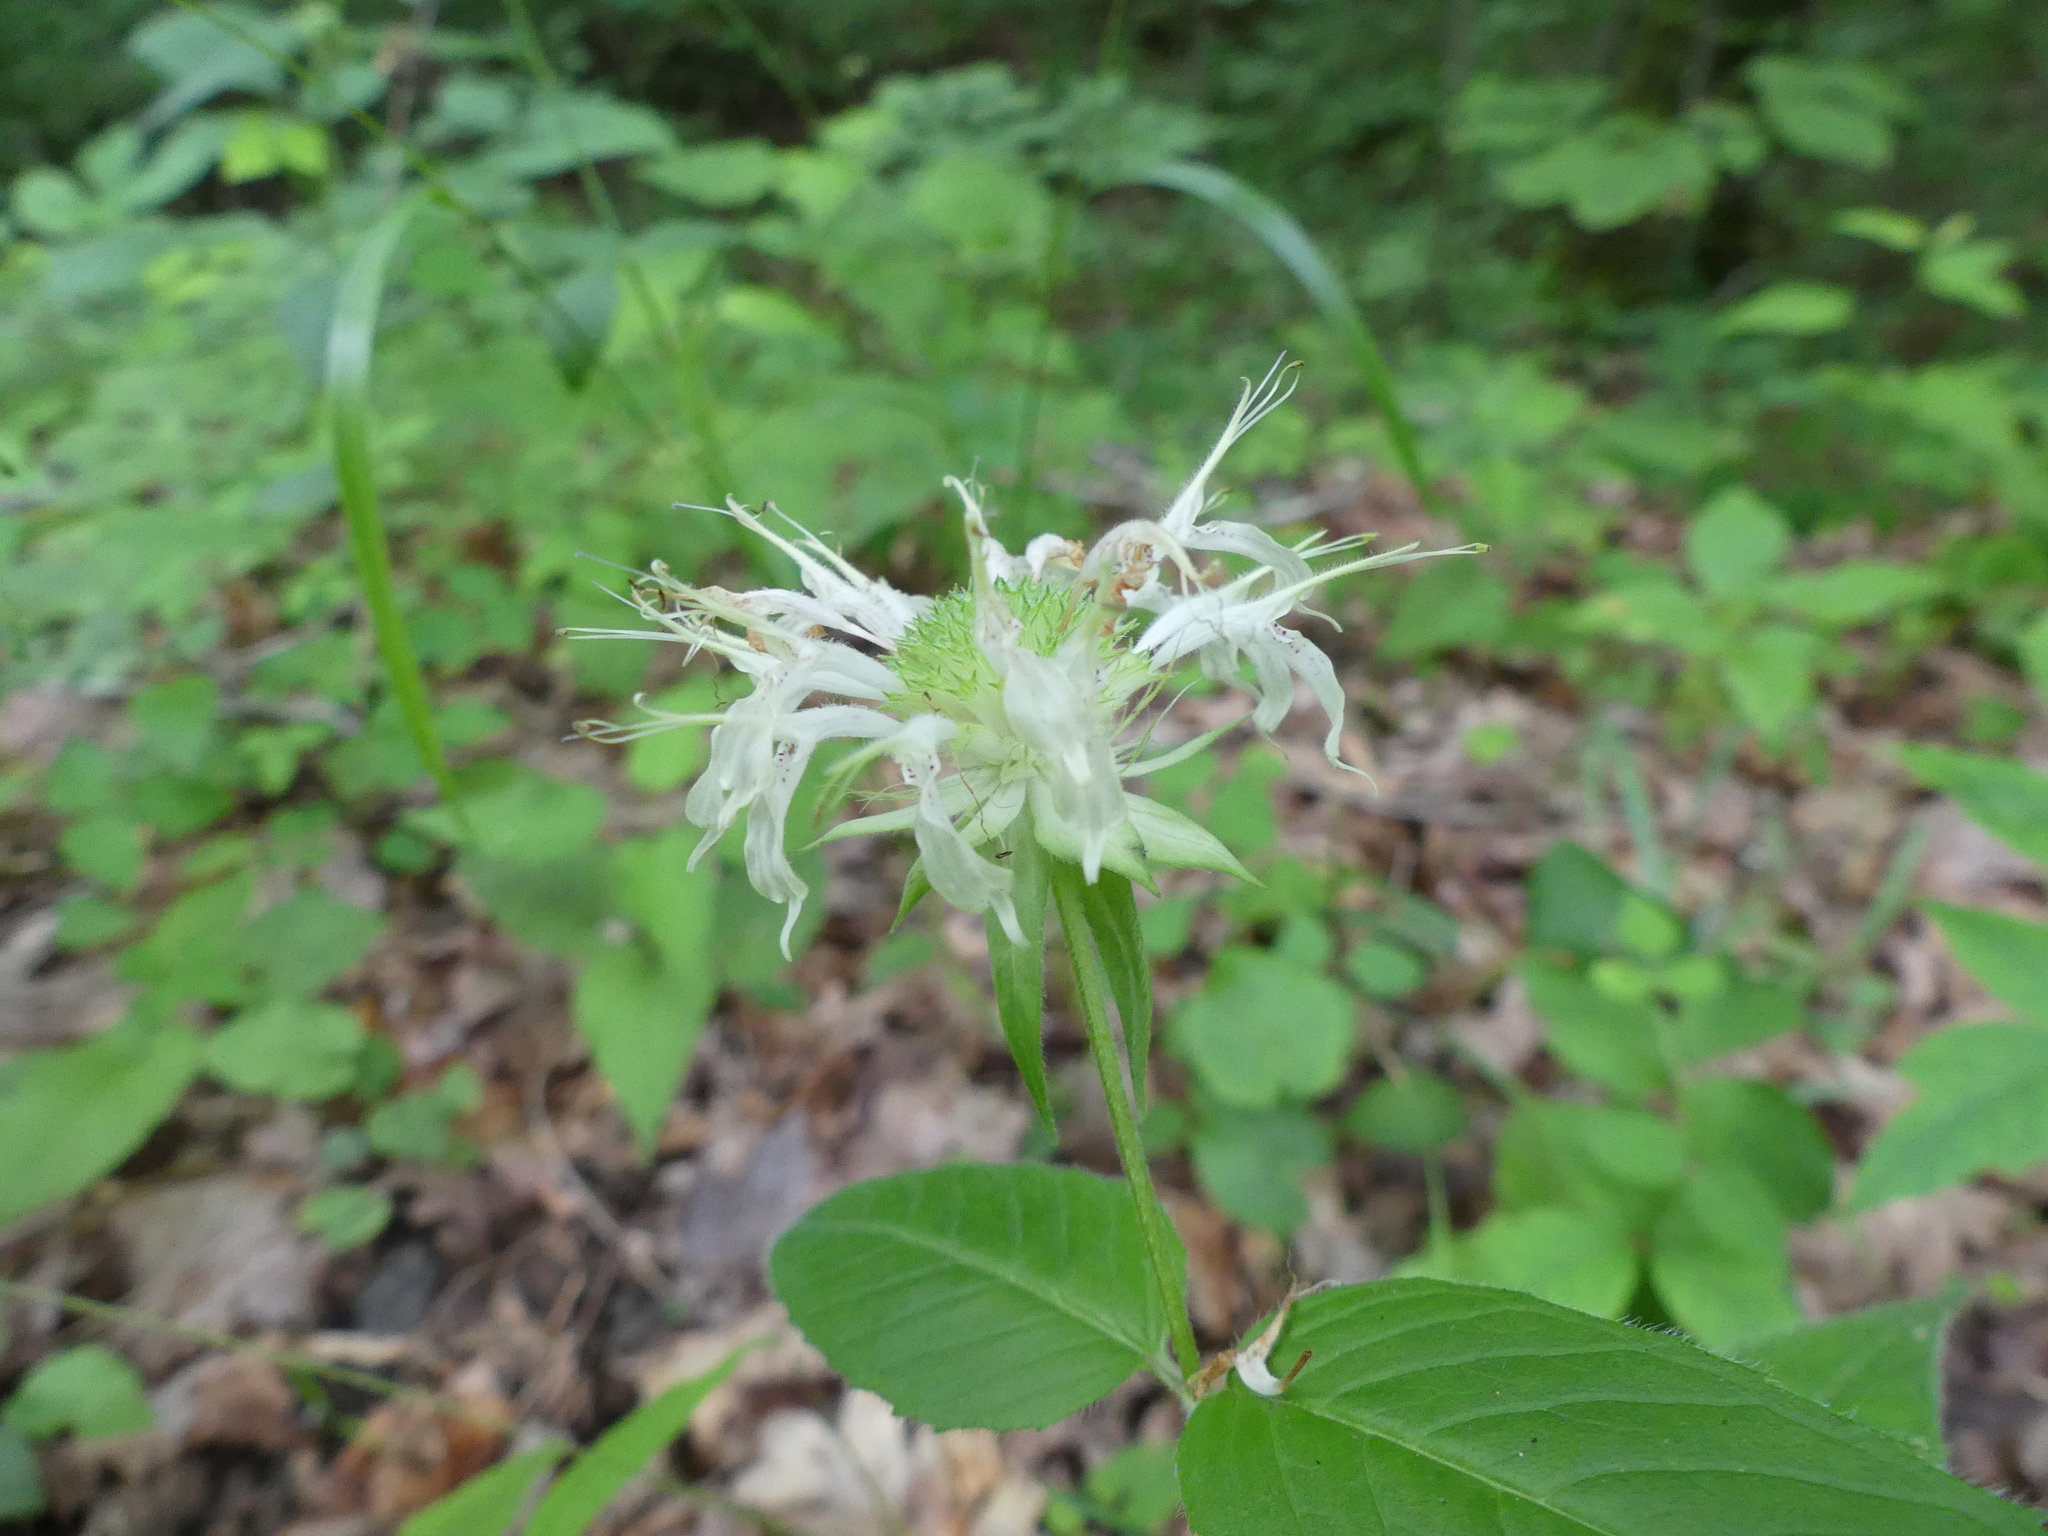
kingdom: Plantae
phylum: Tracheophyta
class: Magnoliopsida
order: Lamiales
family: Lamiaceae
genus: Monarda
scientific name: Monarda clinopodia
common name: Basil beebalm
